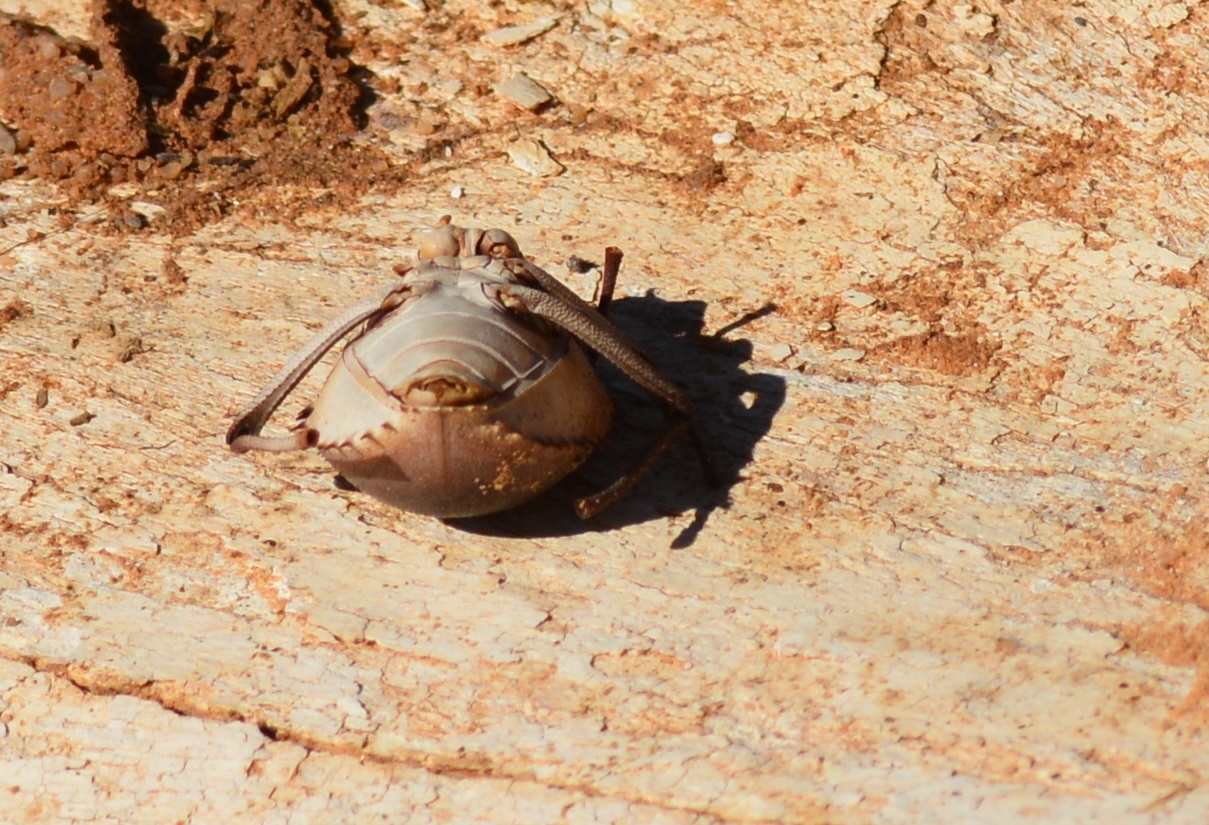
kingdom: Animalia
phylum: Arthropoda
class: Insecta
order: Coleoptera
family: Tenebrionidae
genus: Prionotheca
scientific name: Prionotheca coronata
